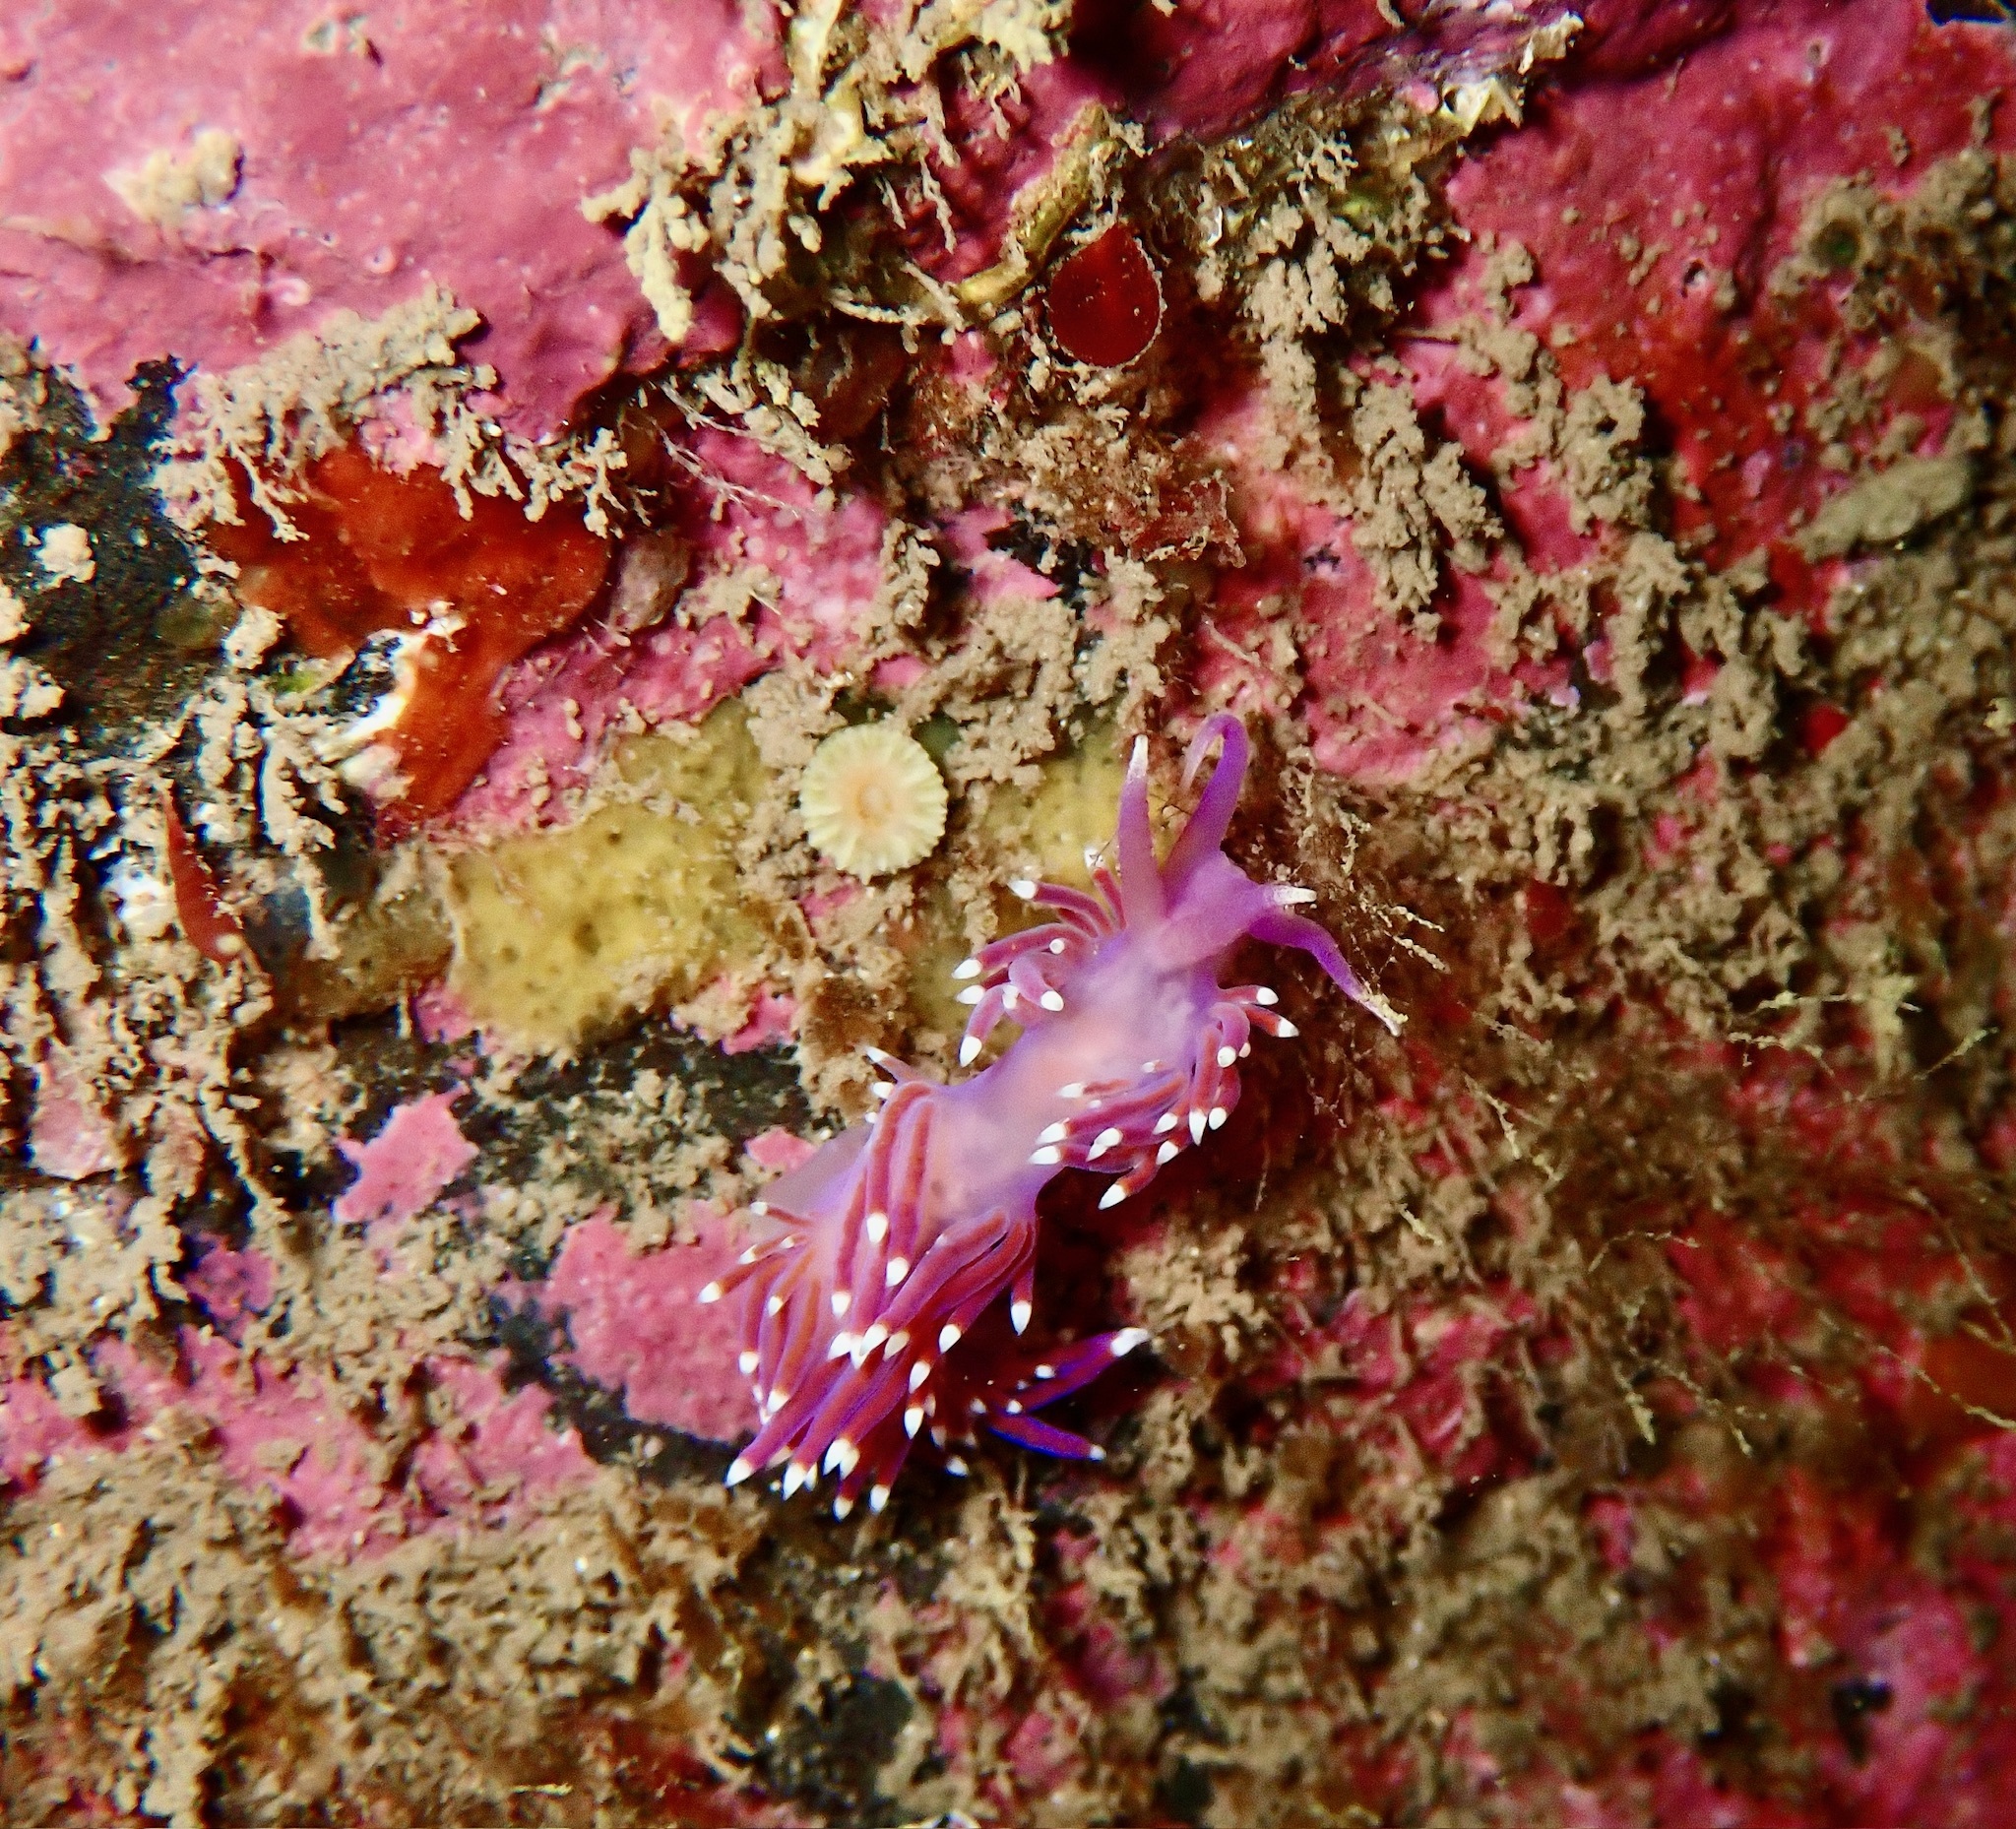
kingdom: Animalia
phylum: Mollusca
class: Gastropoda
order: Nudibranchia
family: Flabellinidae
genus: Edmundsella
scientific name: Edmundsella pedata
